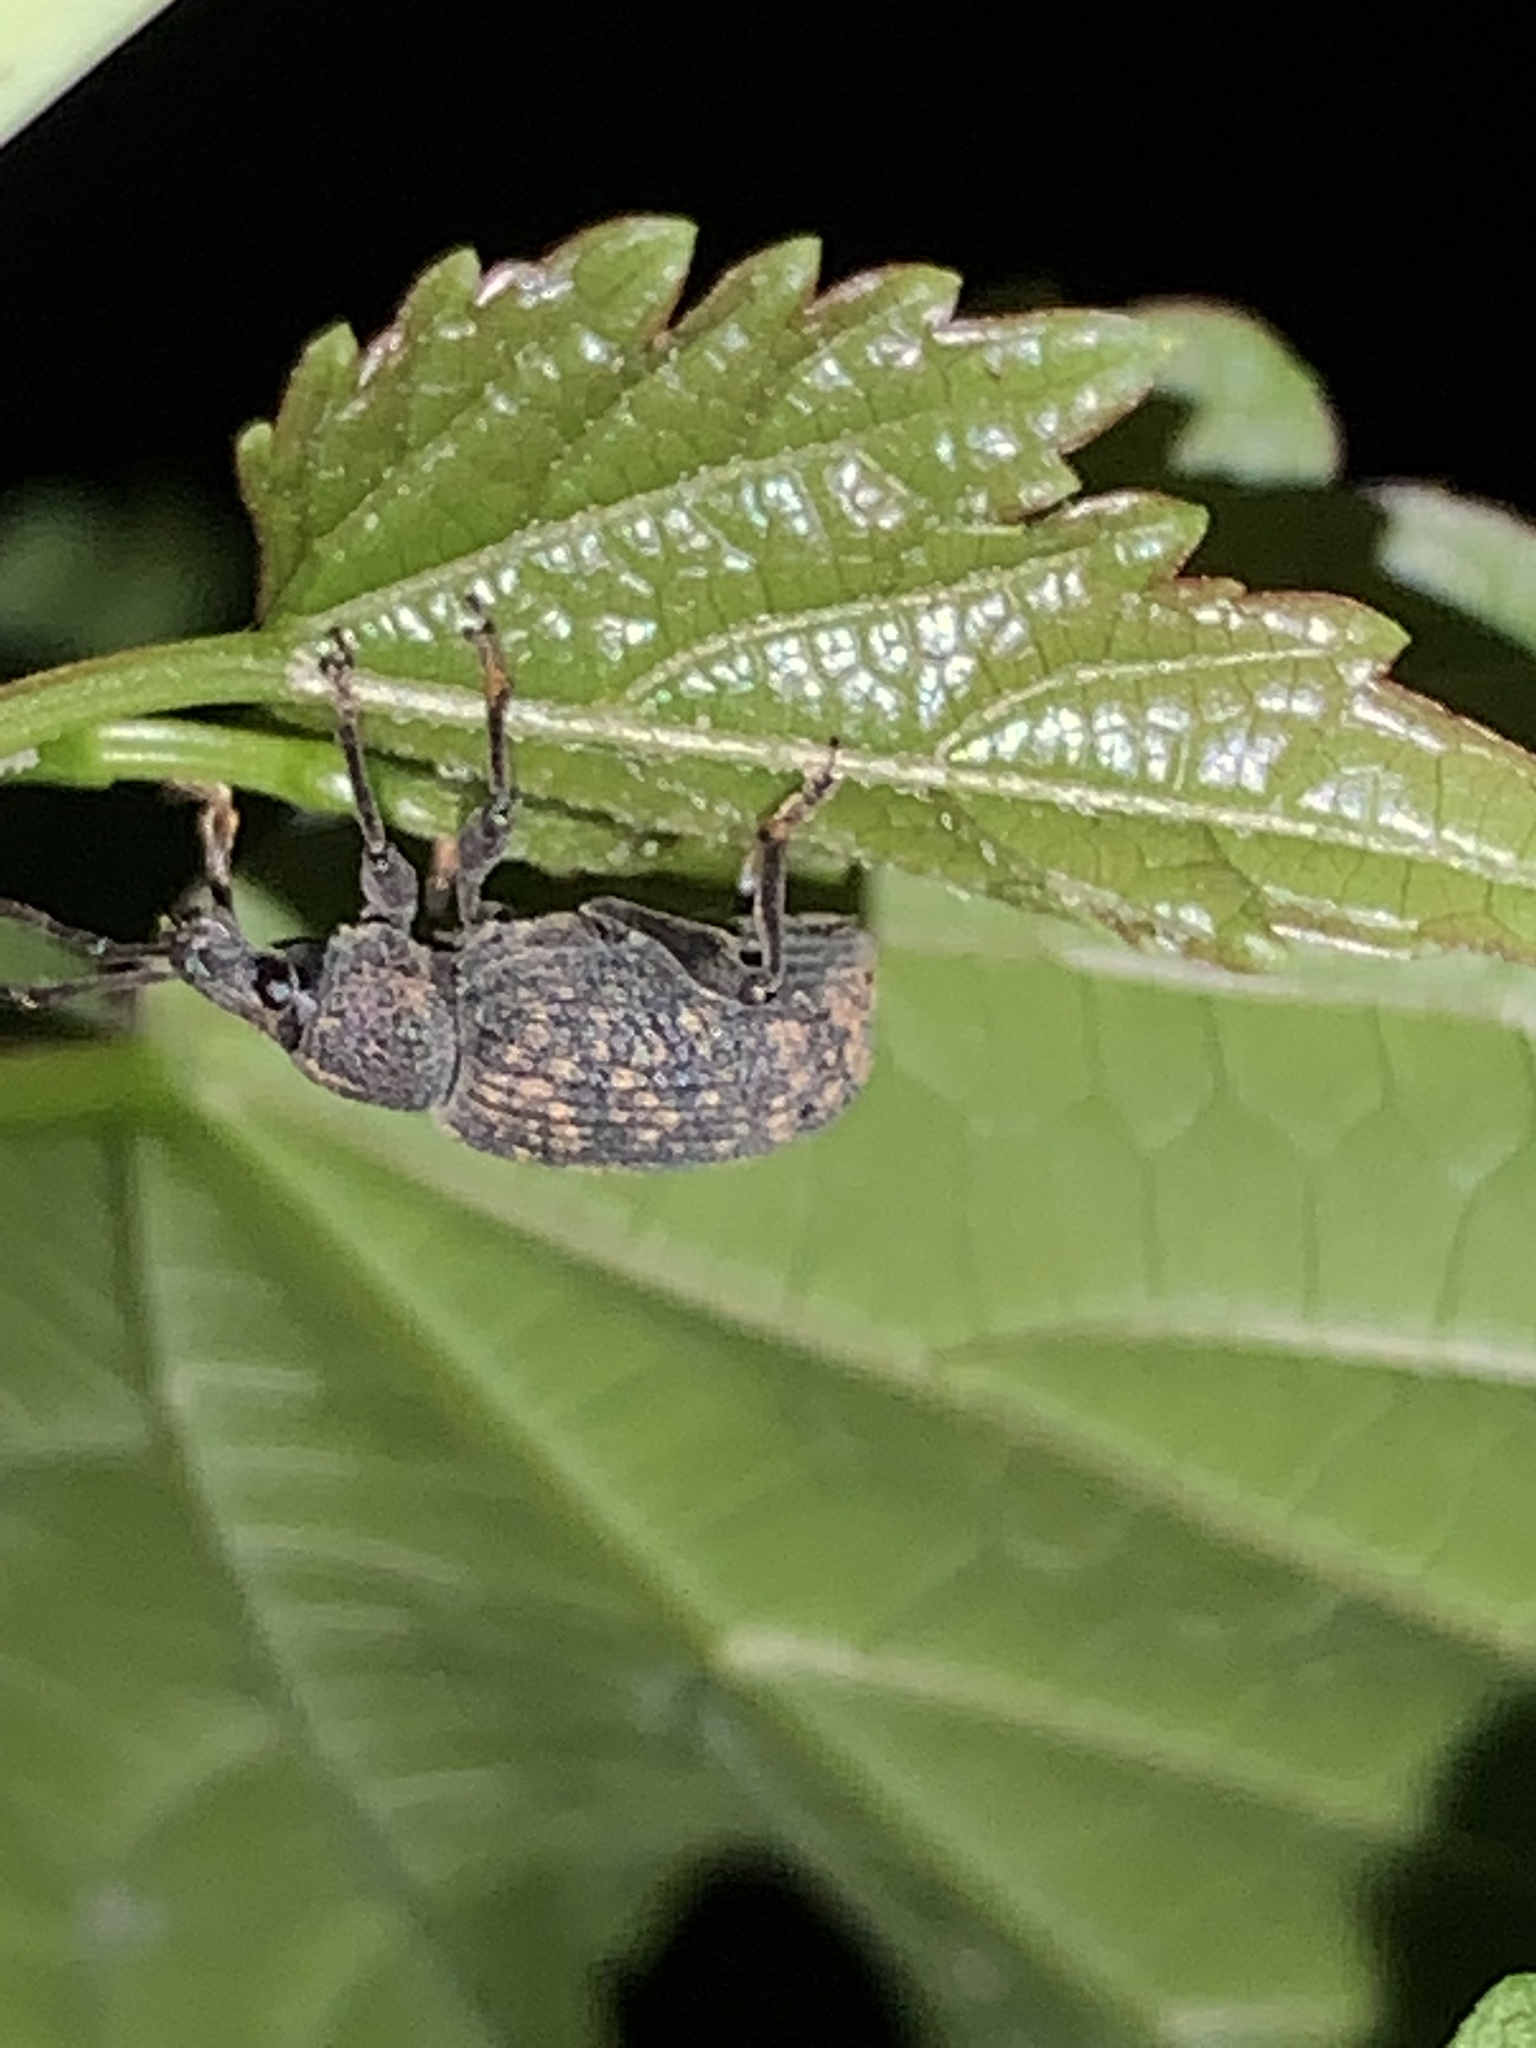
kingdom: Animalia
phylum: Arthropoda
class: Insecta
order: Coleoptera
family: Curculionidae
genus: Otiorhynchus
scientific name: Otiorhynchus sulcatus
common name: Black vine weevil
